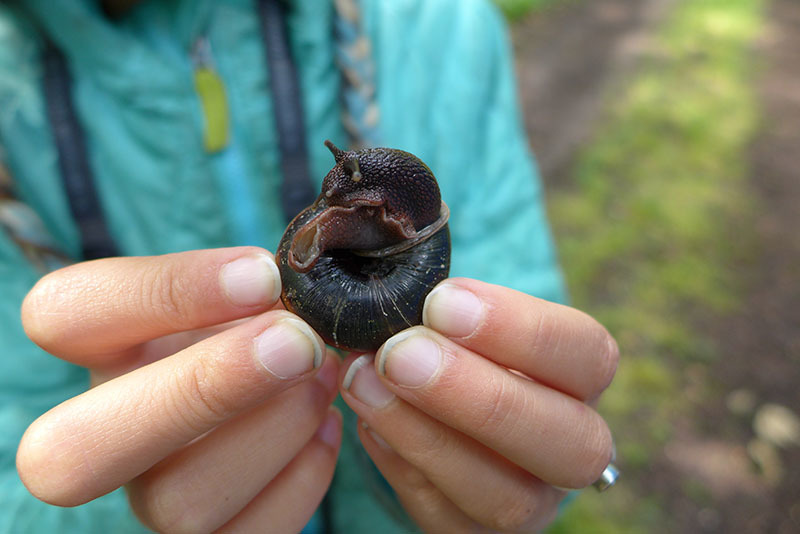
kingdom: Animalia
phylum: Mollusca
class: Gastropoda
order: Stylommatophora
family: Xanthonychidae
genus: Monadenia
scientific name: Monadenia fidelis
